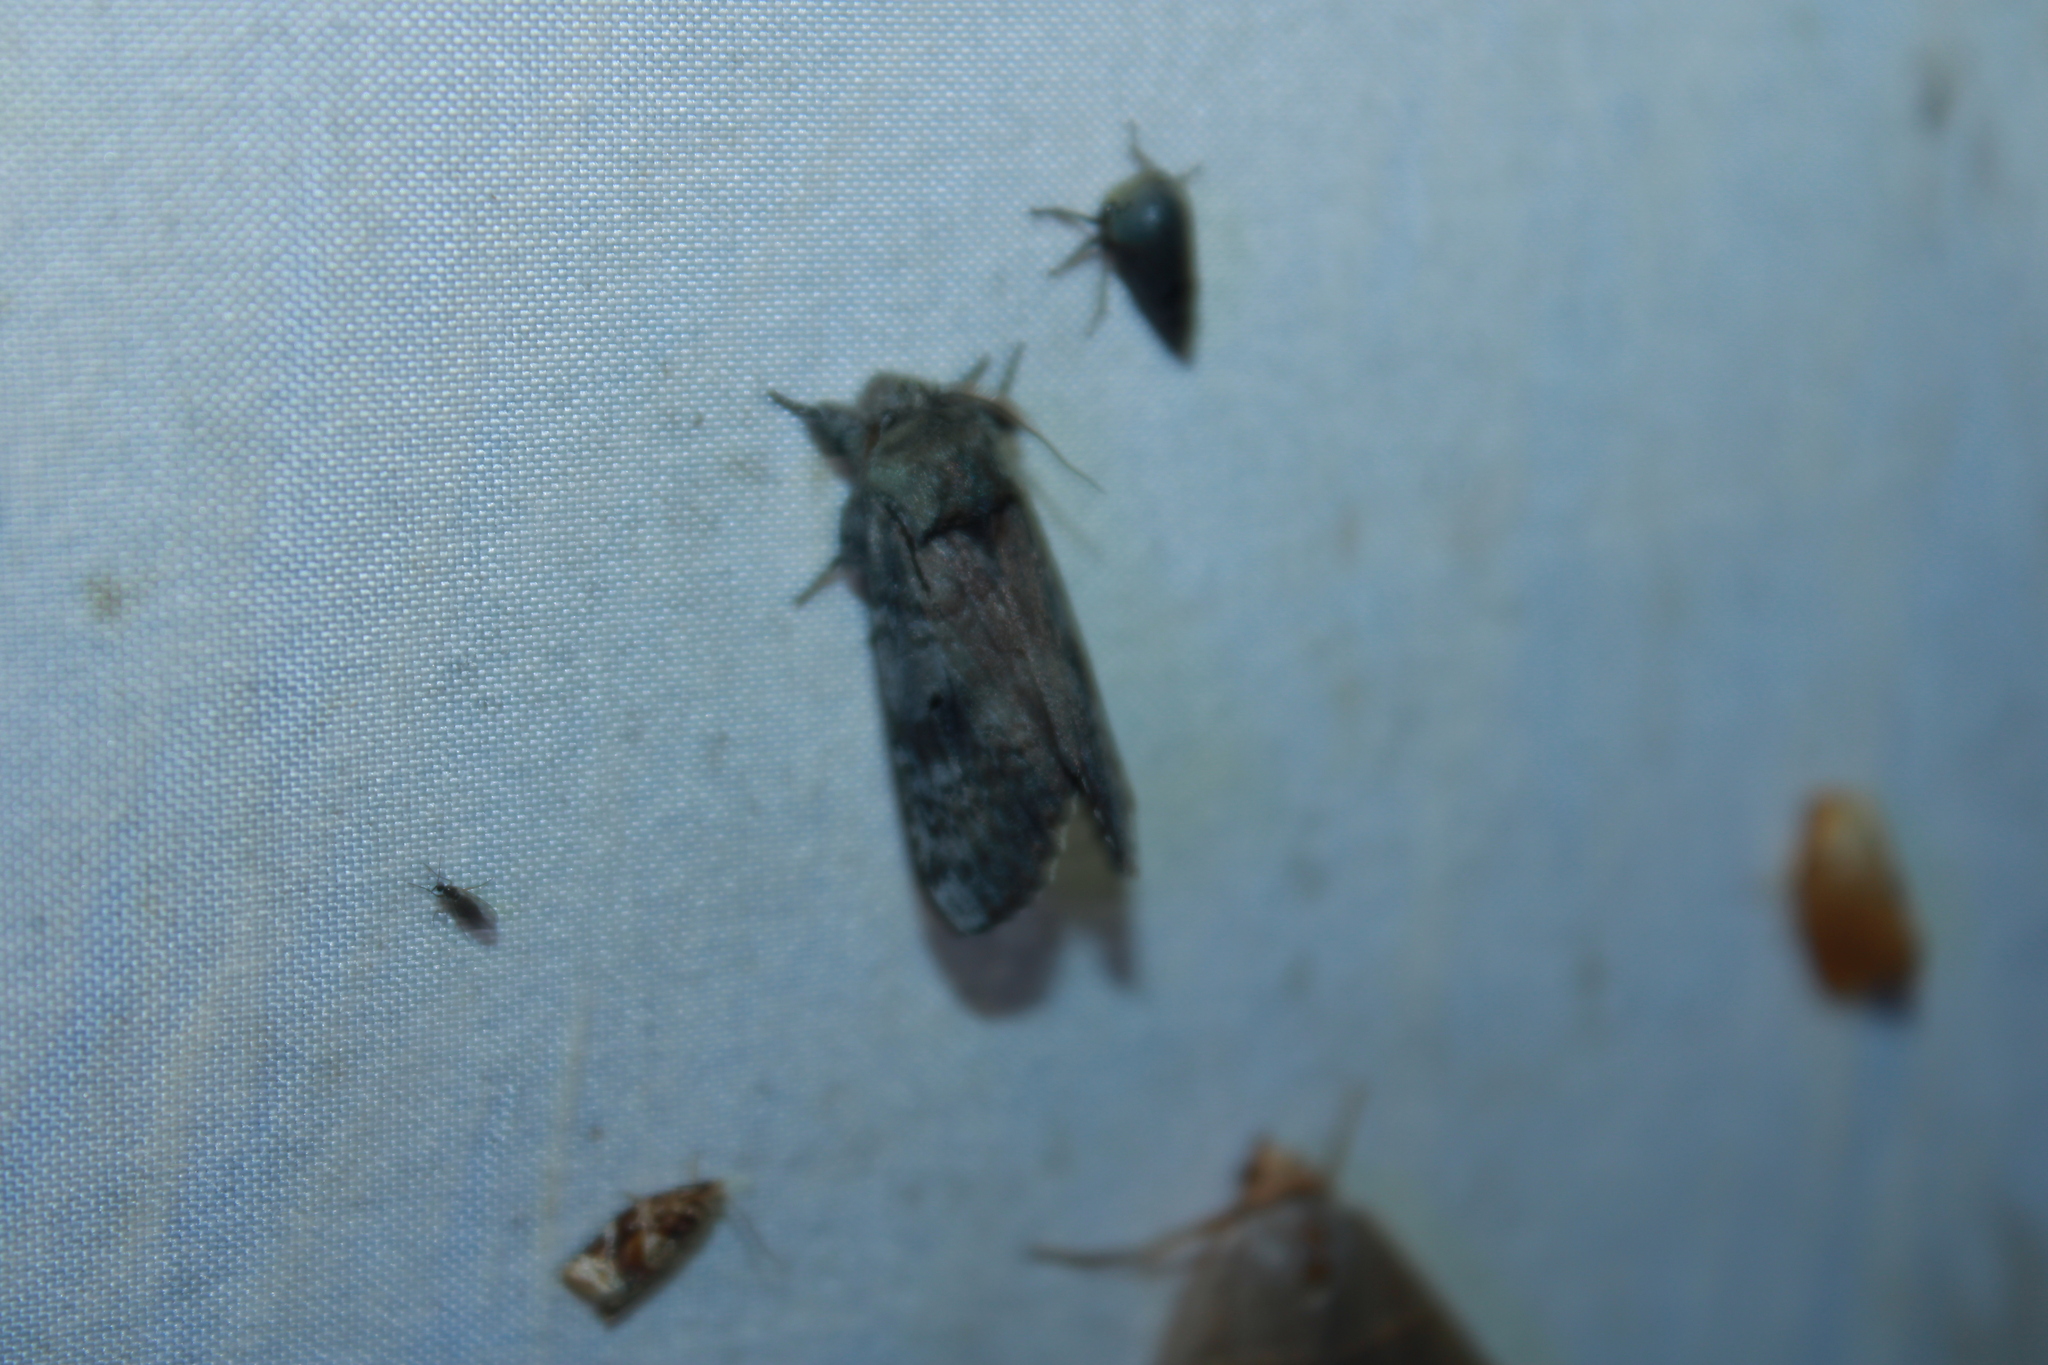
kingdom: Animalia
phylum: Arthropoda
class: Insecta
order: Lepidoptera
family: Notodontidae
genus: Schizura
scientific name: Schizura
